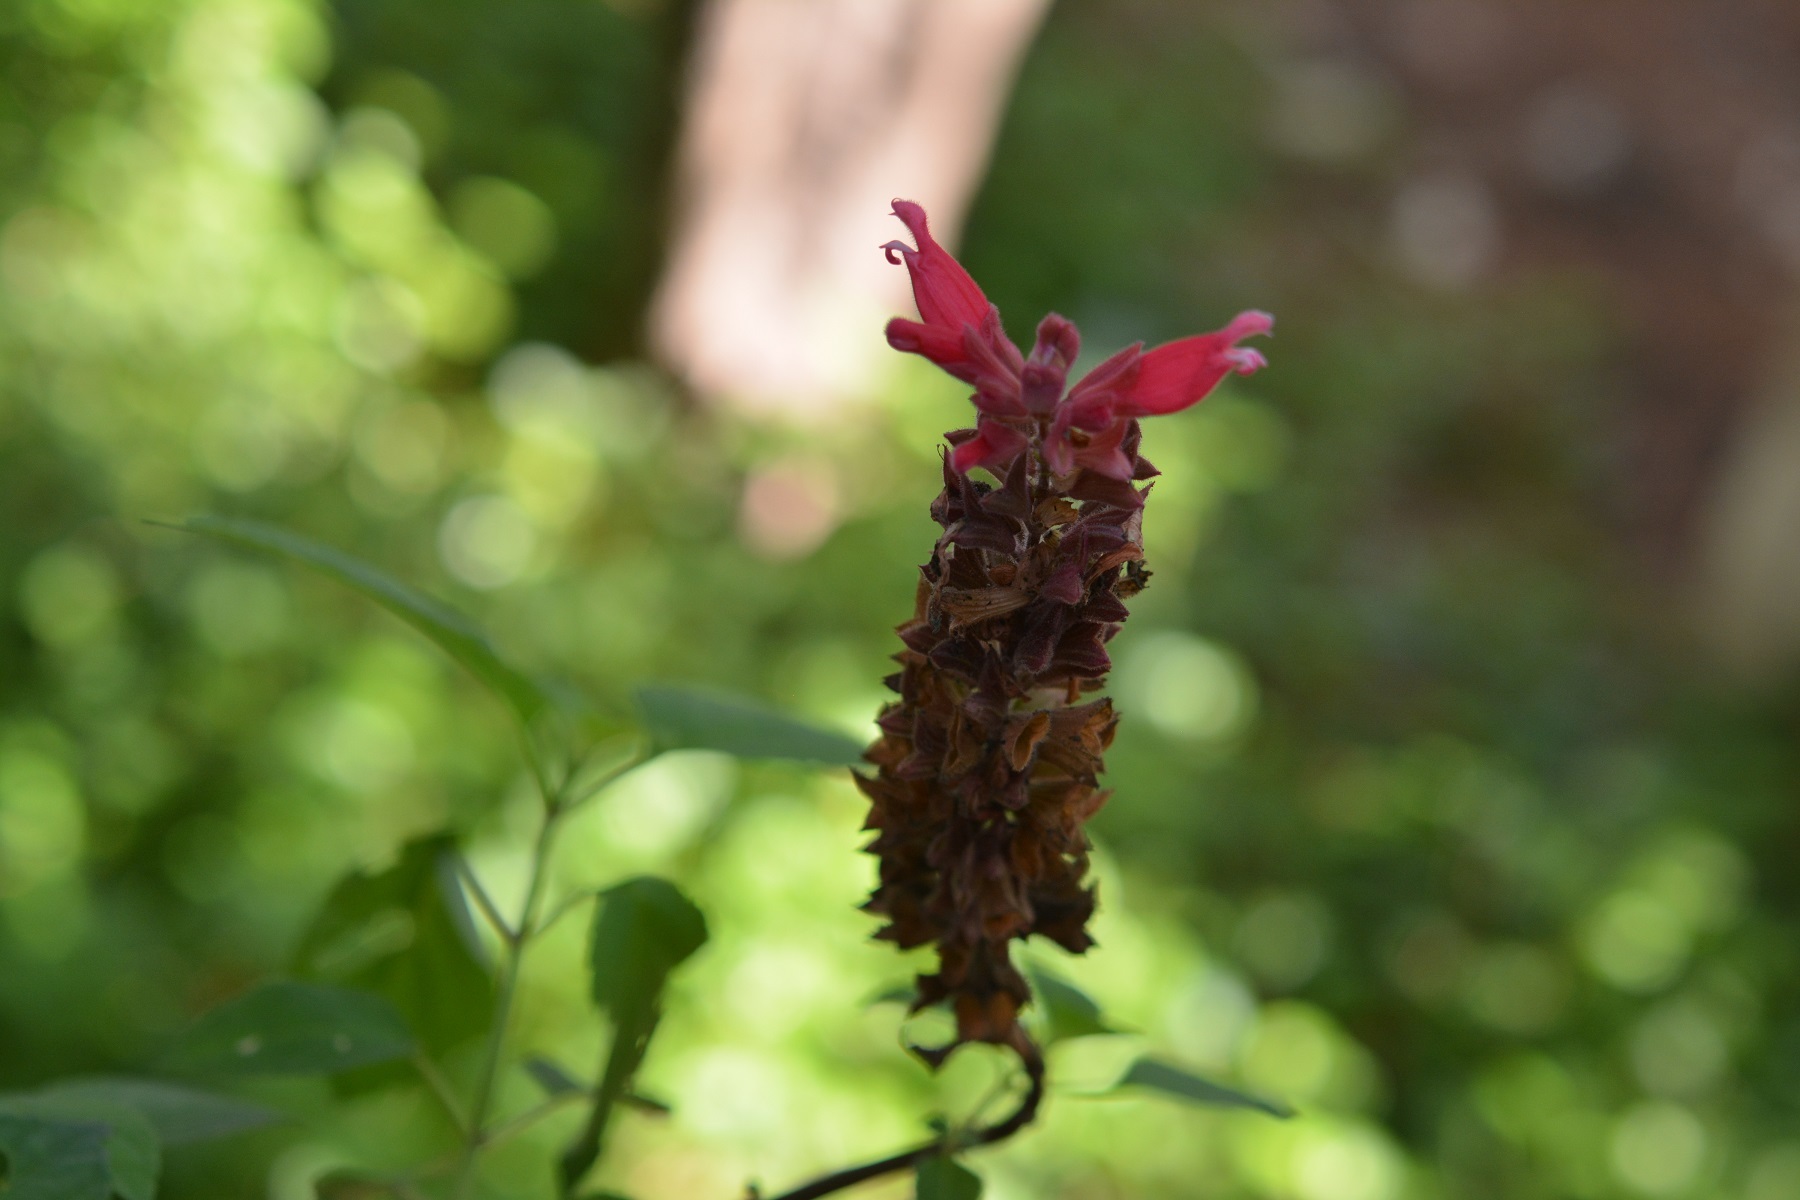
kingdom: Plantae
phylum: Tracheophyta
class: Magnoliopsida
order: Lamiales
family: Lamiaceae
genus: Salvia
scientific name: Salvia wagneriana
